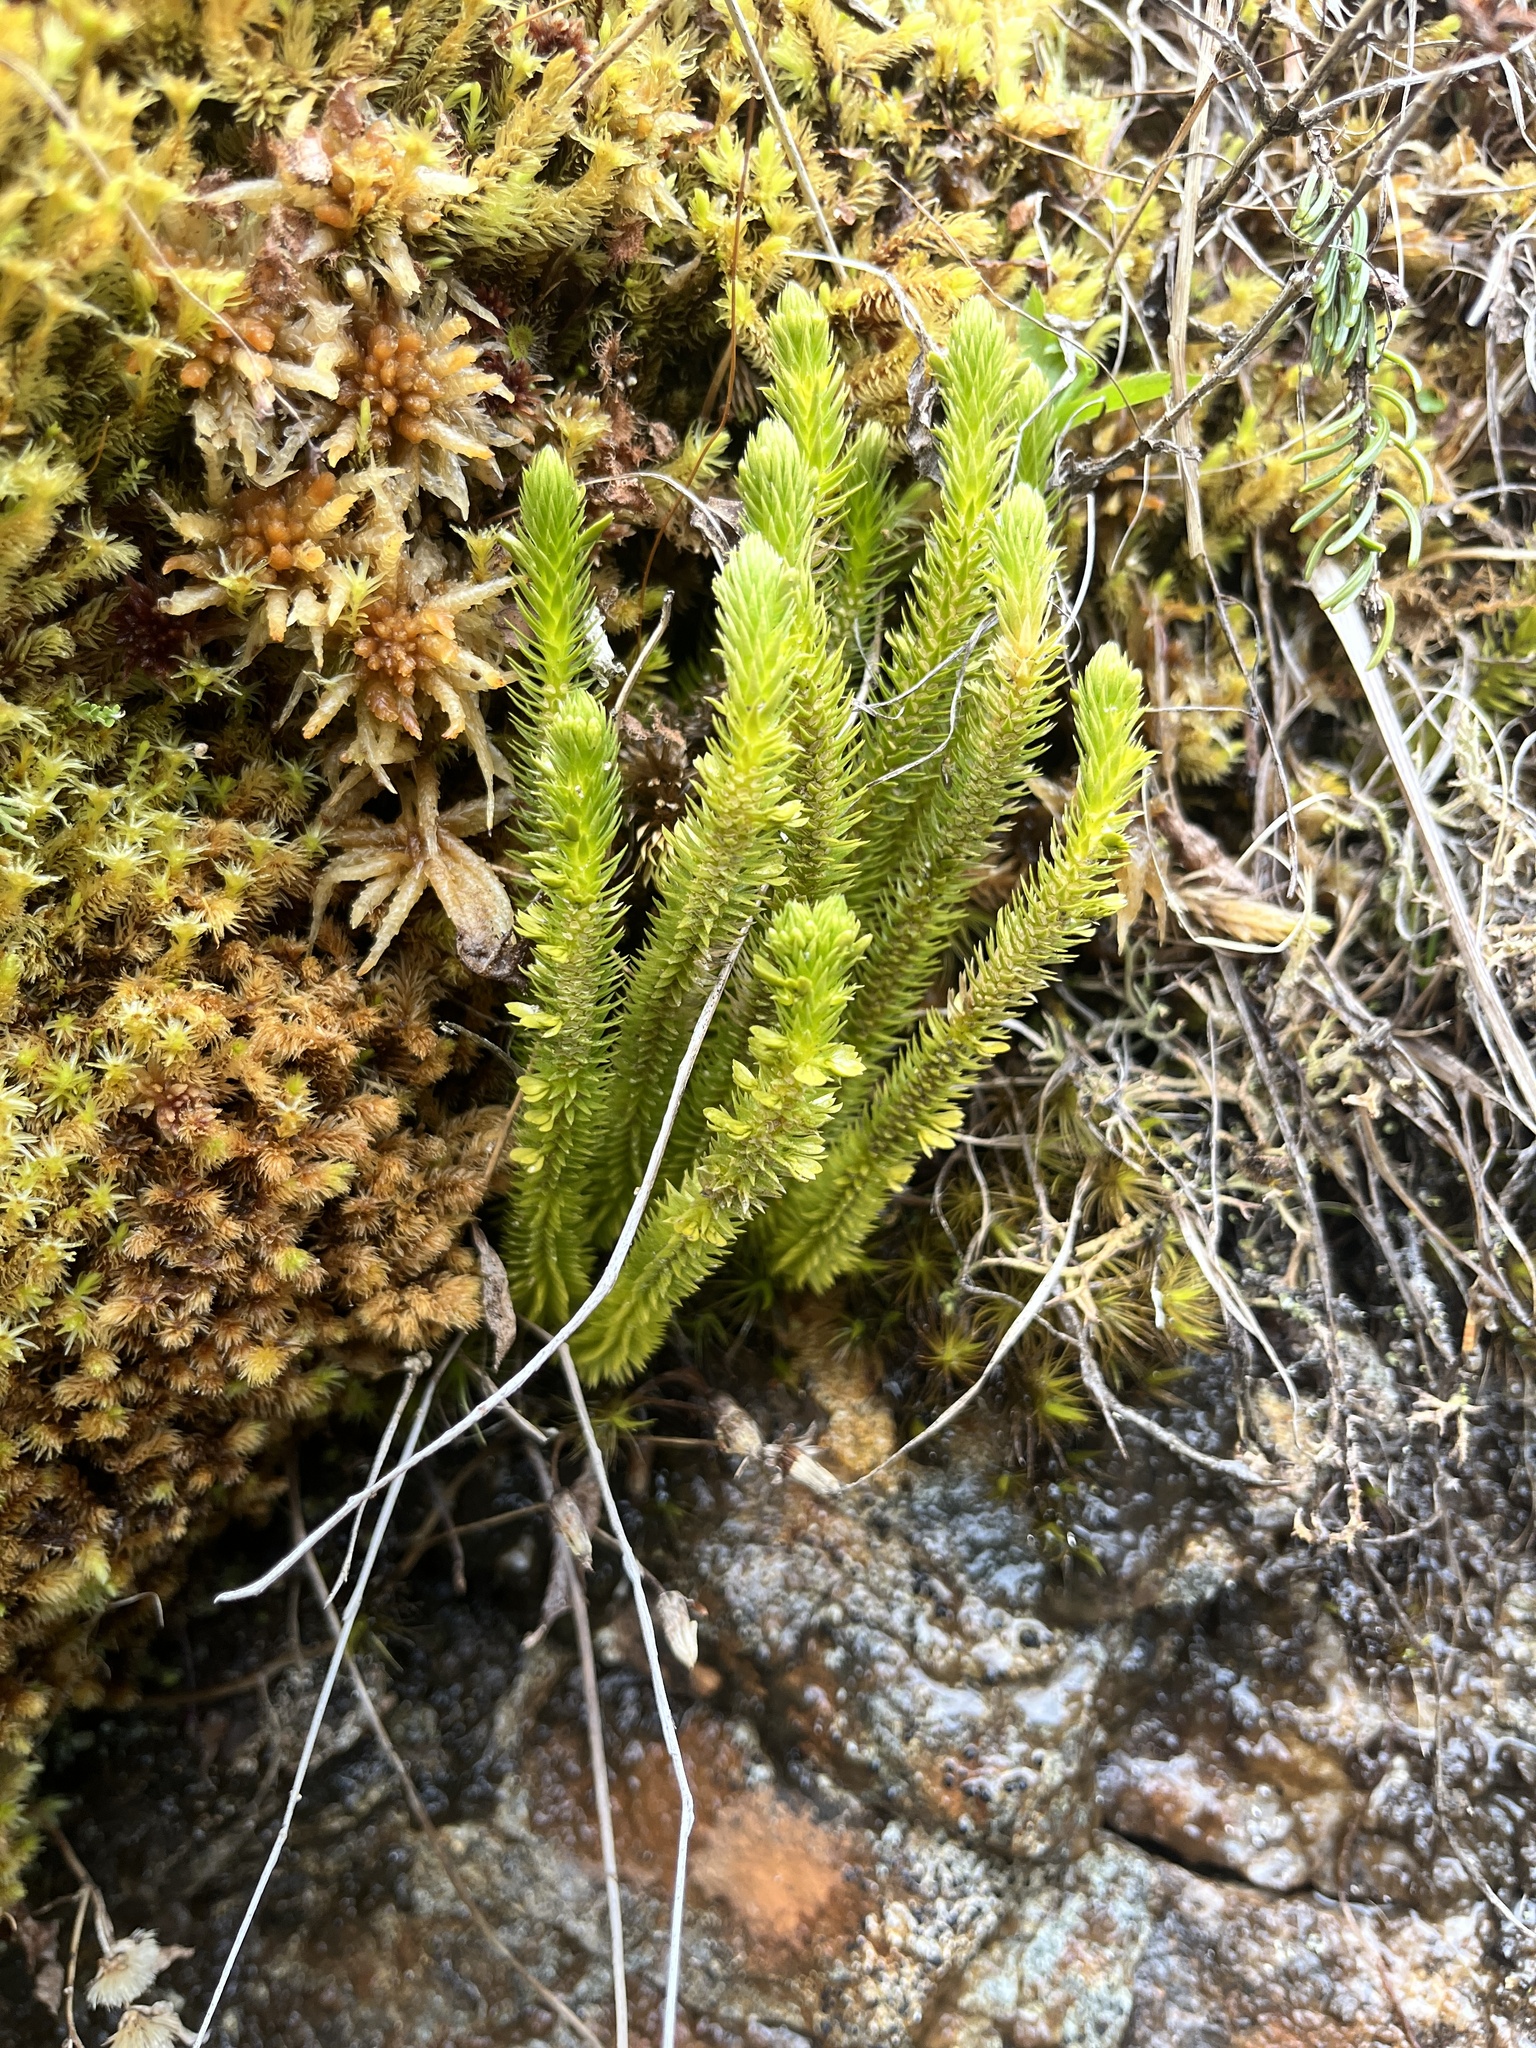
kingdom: Plantae
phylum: Tracheophyta
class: Lycopodiopsida
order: Lycopodiales
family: Lycopodiaceae
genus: Huperzia
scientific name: Huperzia selago
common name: Northern firmoss
